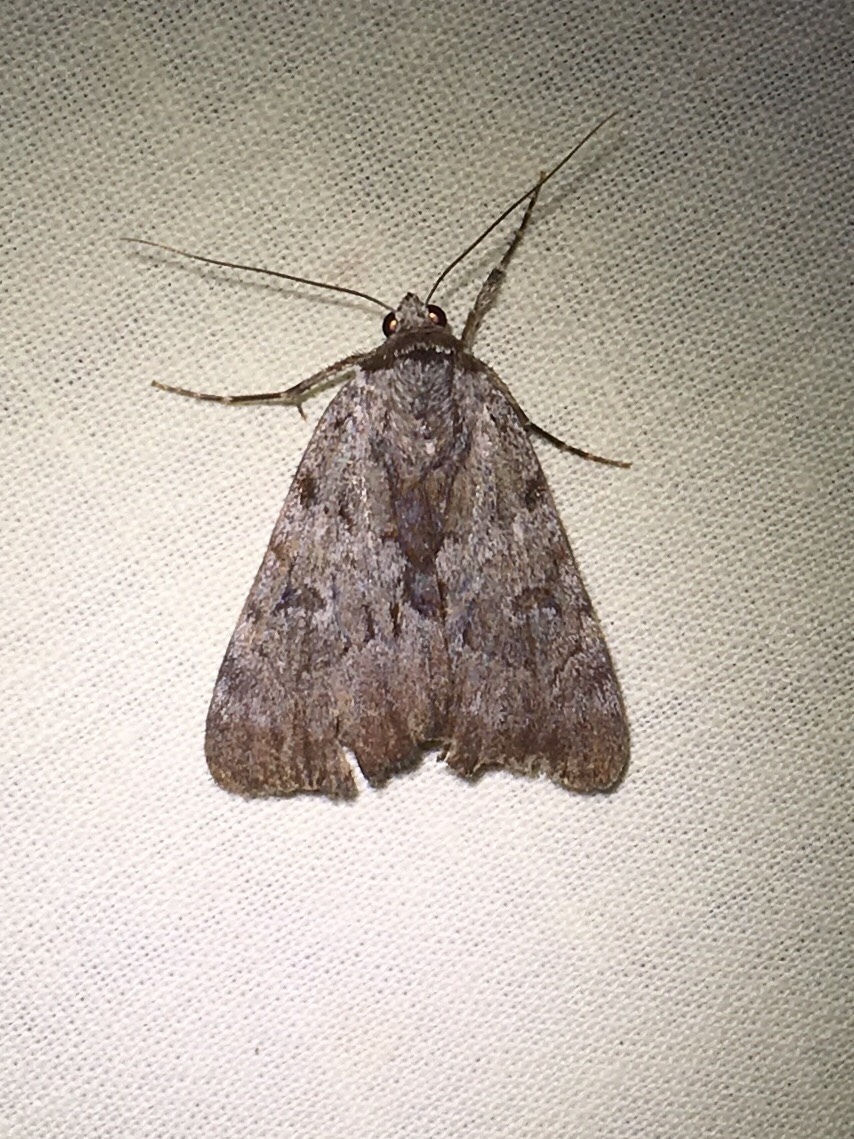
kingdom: Animalia
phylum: Arthropoda
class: Insecta
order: Lepidoptera
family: Erebidae
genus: Catocala
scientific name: Catocala sordida
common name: Sordid underwing
